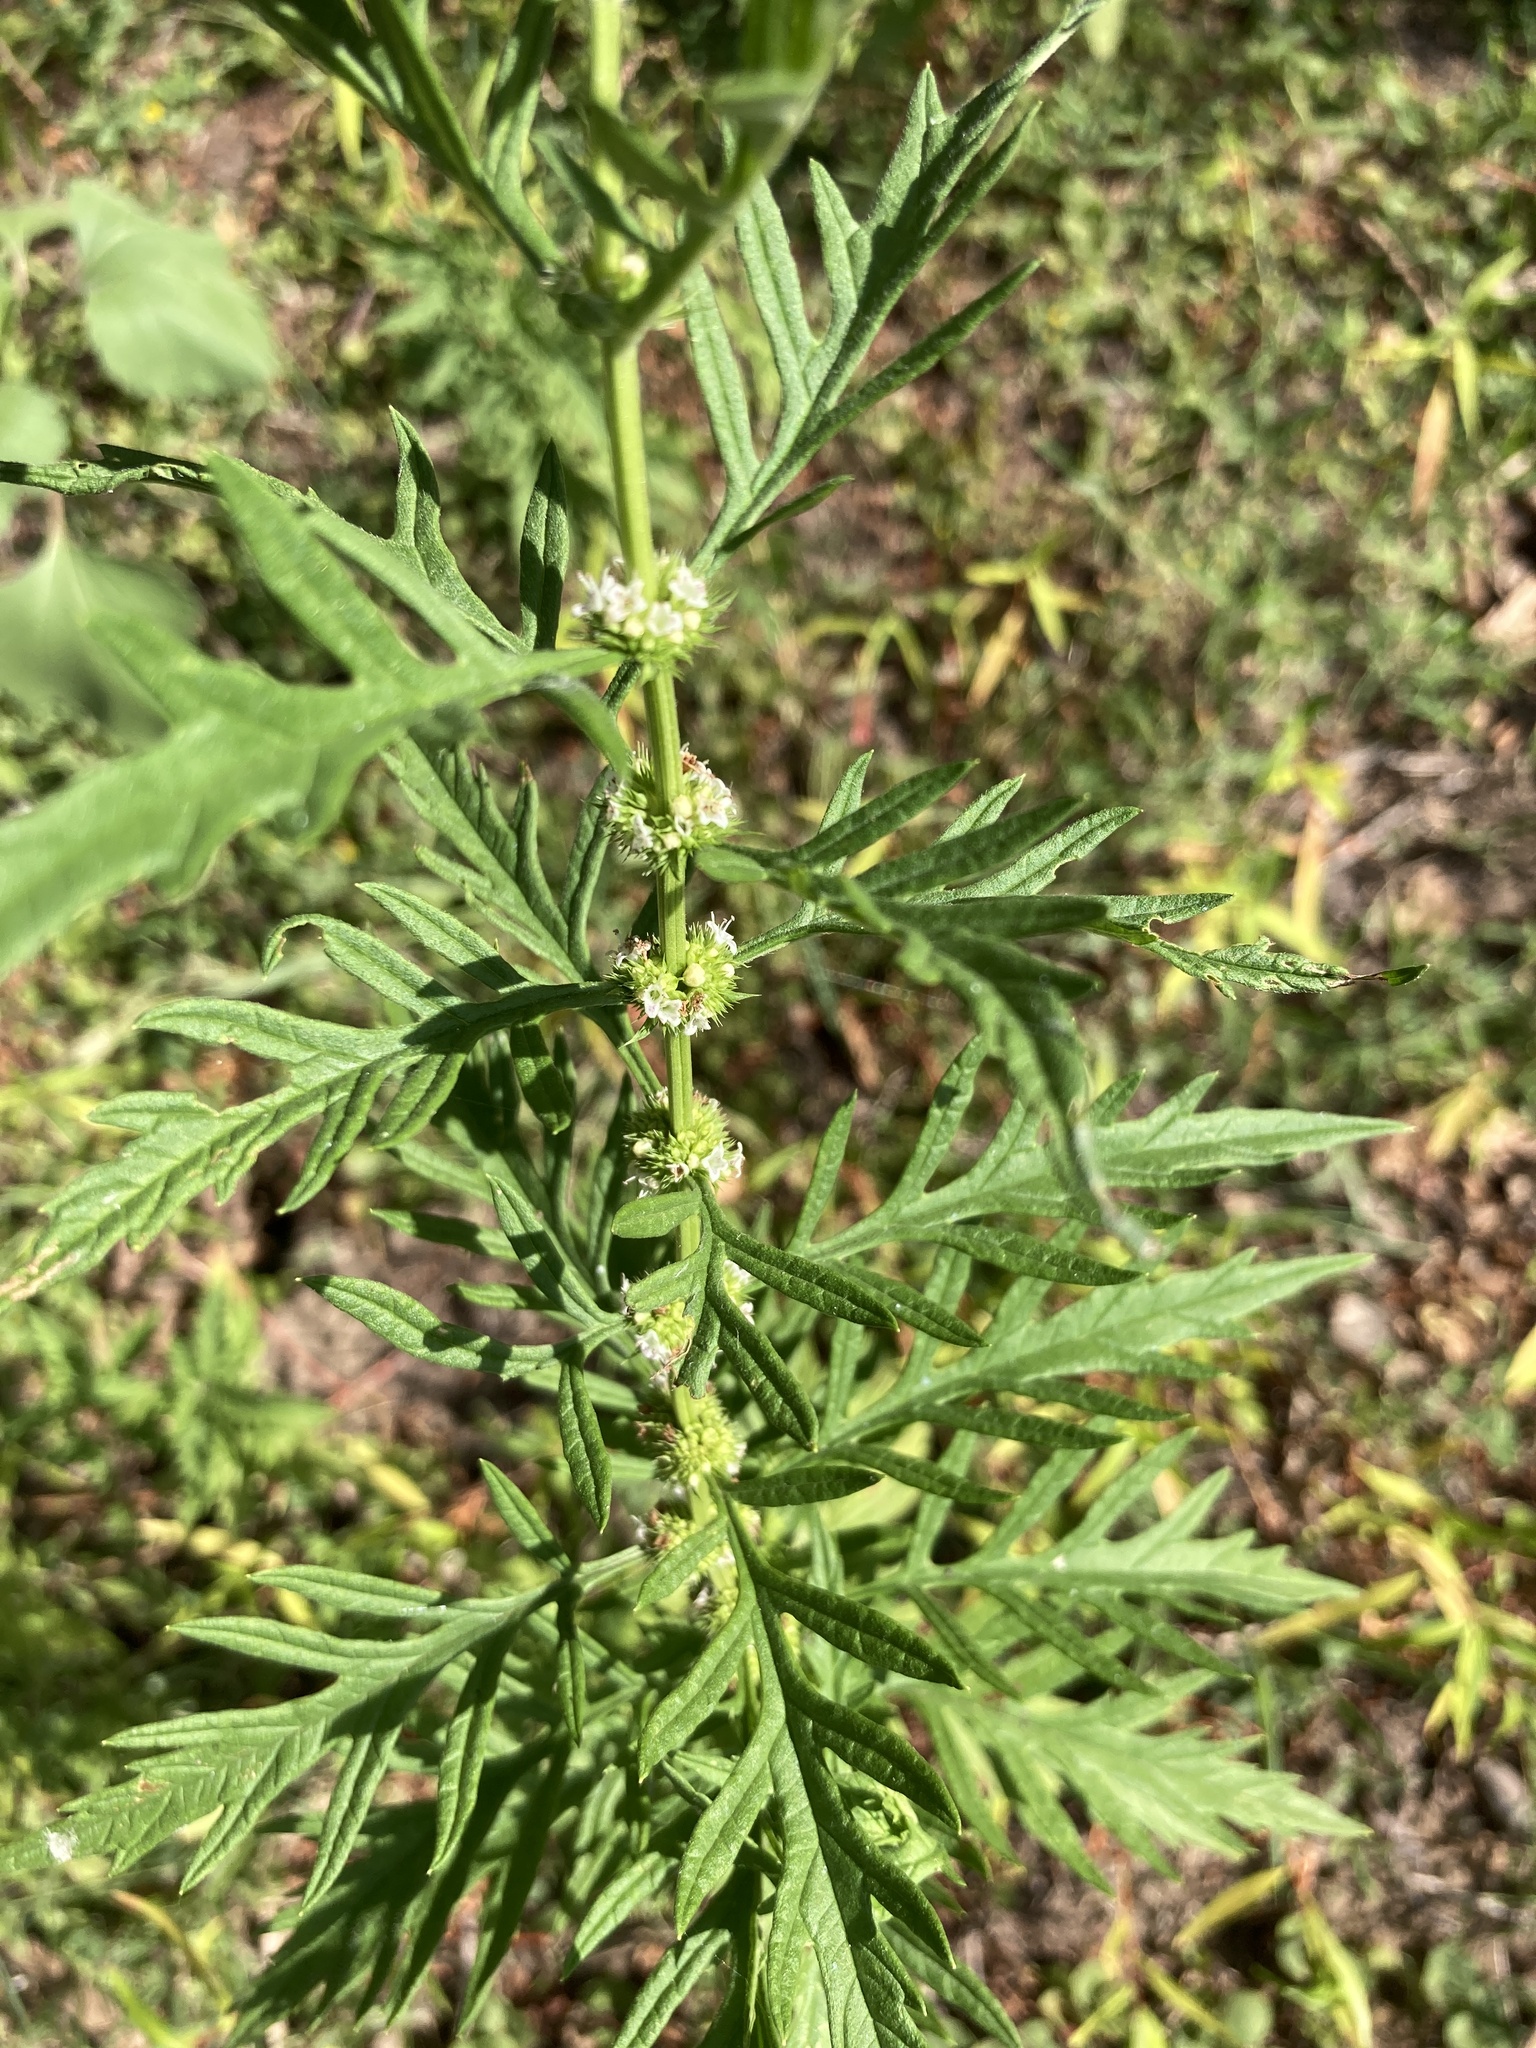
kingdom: Plantae
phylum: Tracheophyta
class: Magnoliopsida
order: Lamiales
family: Lamiaceae
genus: Lycopus
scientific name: Lycopus exaltatus
